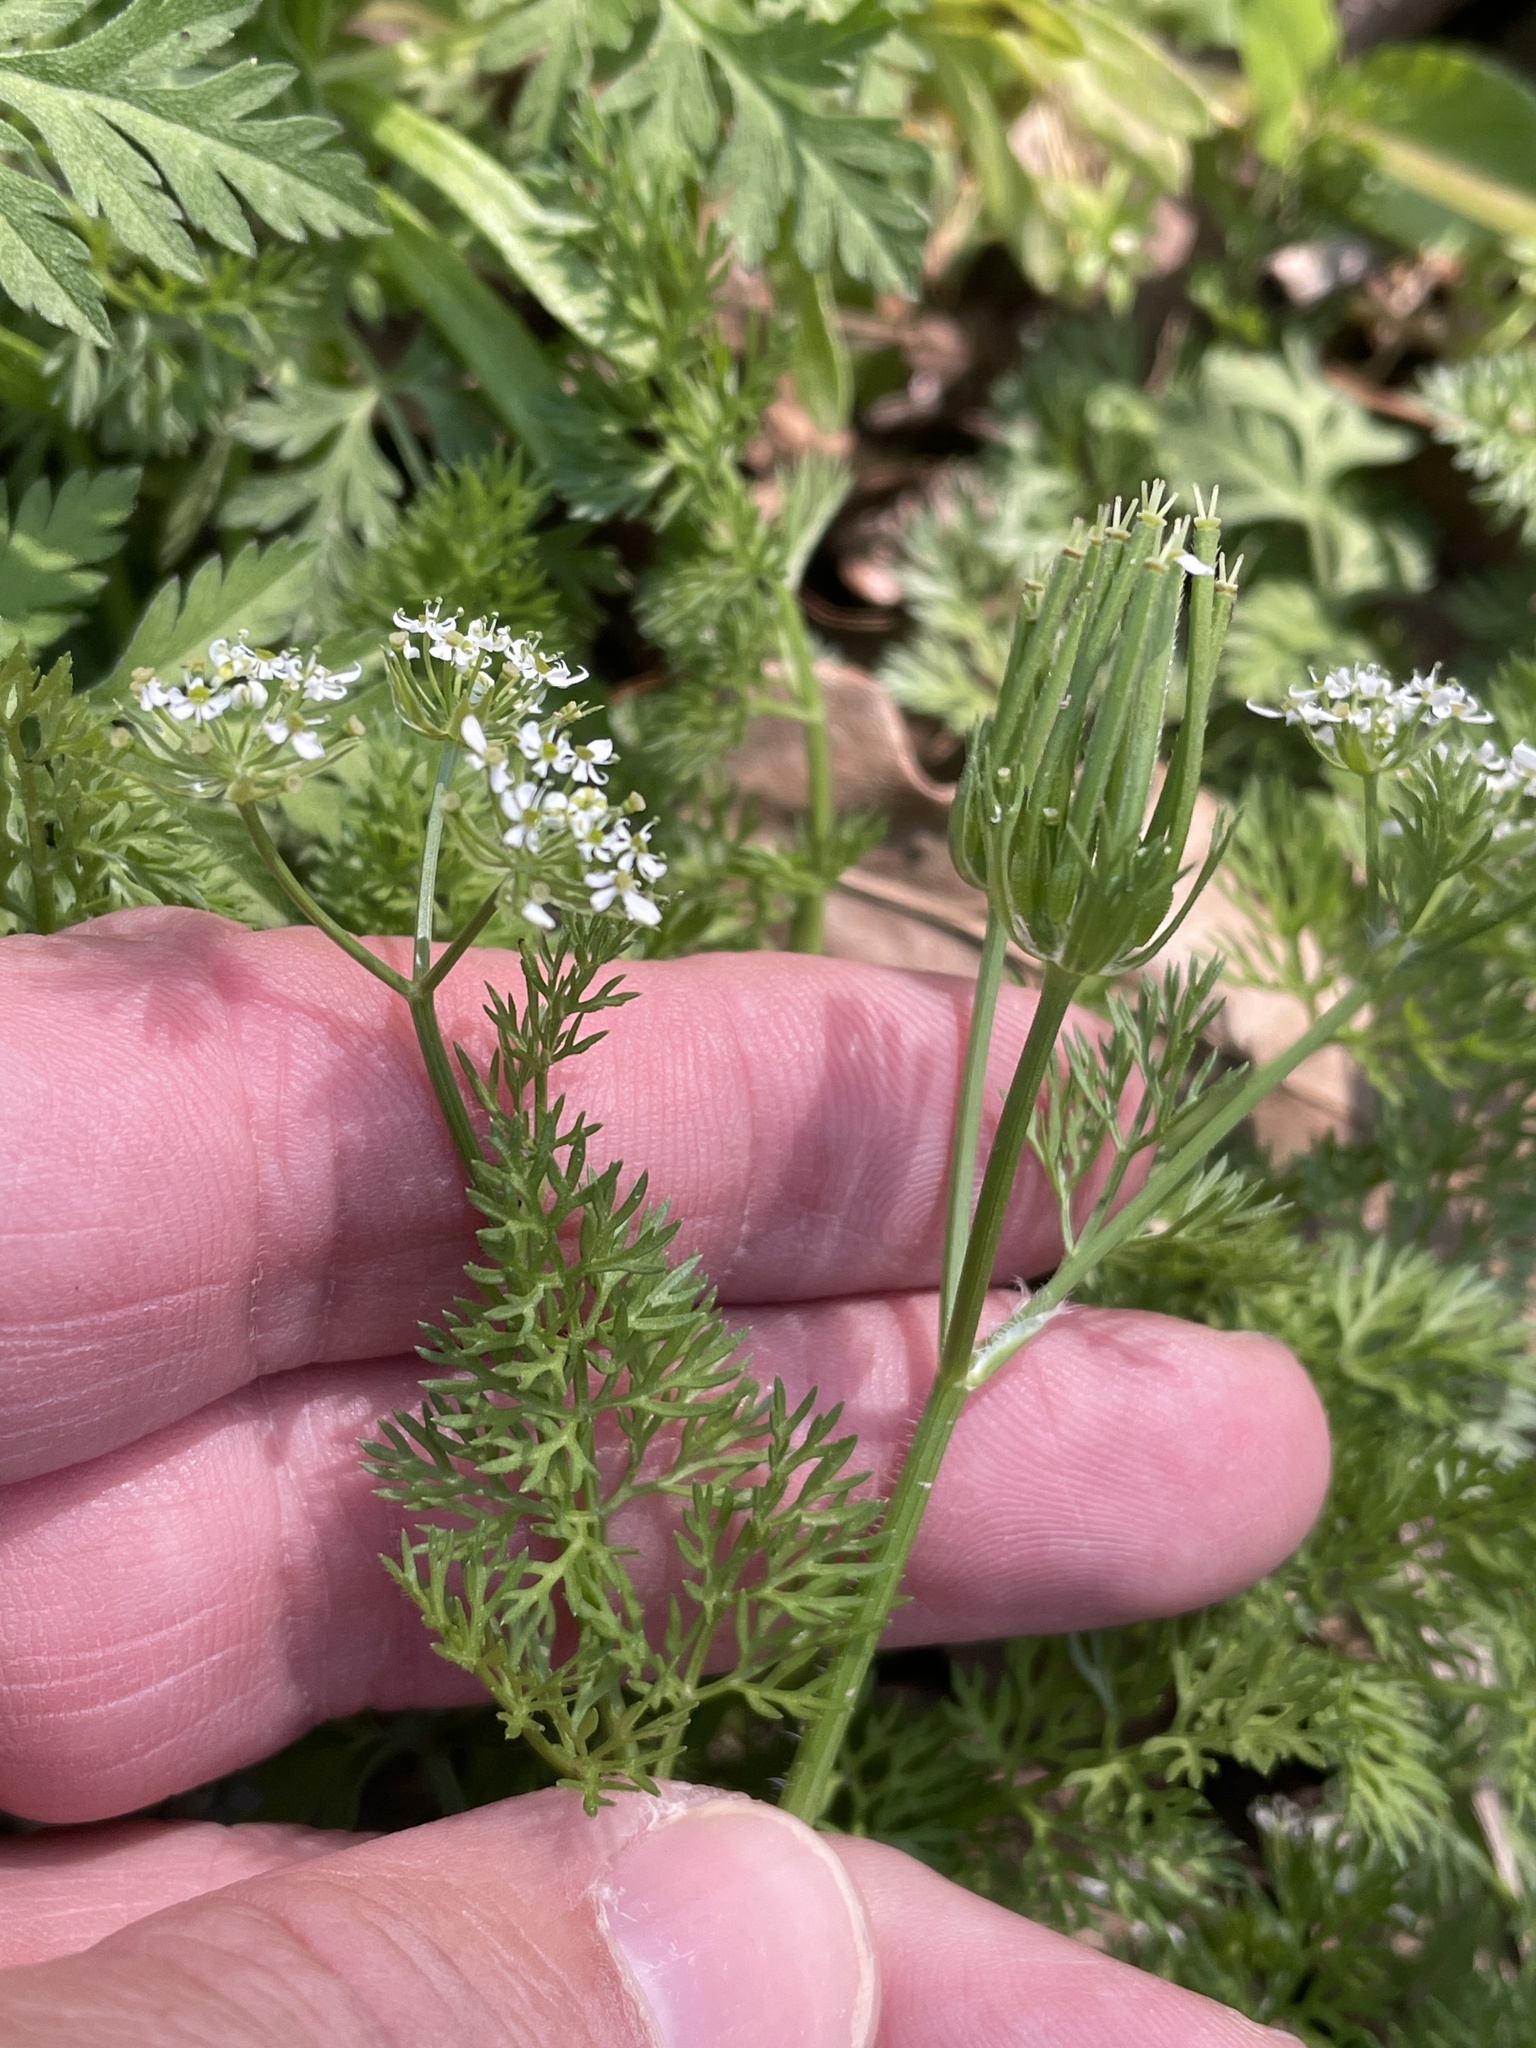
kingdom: Plantae
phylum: Tracheophyta
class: Magnoliopsida
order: Apiales
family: Apiaceae
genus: Scandix
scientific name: Scandix pecten-veneris
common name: Shepherd's-needle
